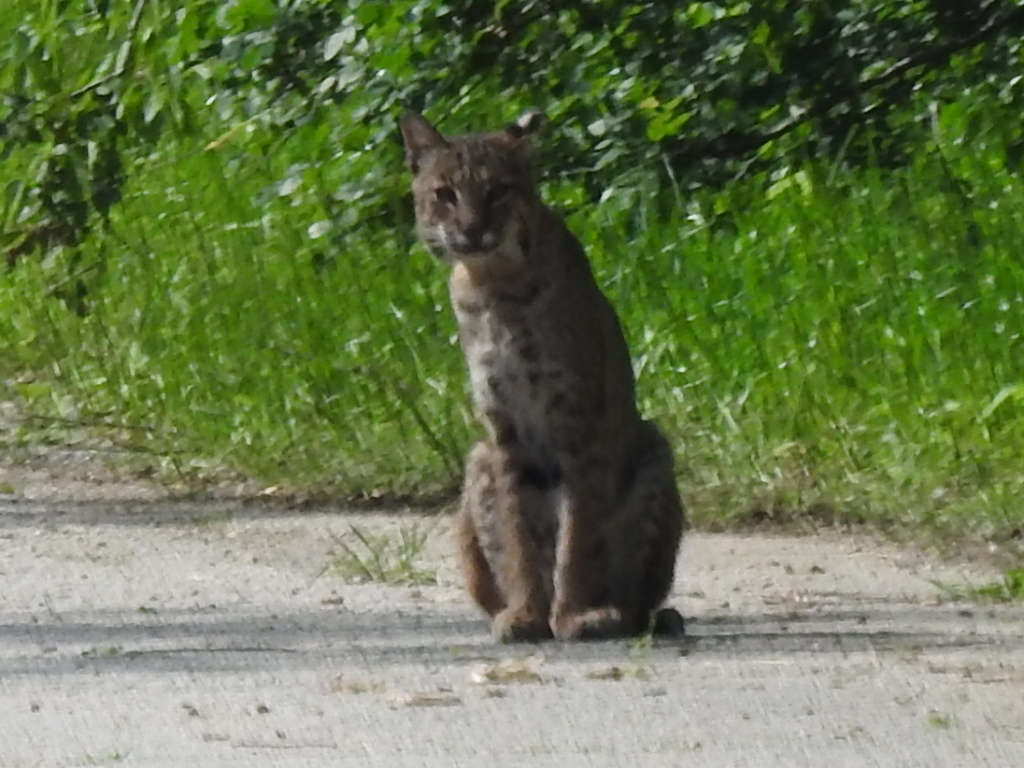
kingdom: Animalia
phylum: Chordata
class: Mammalia
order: Carnivora
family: Felidae
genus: Lynx
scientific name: Lynx rufus
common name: Bobcat
